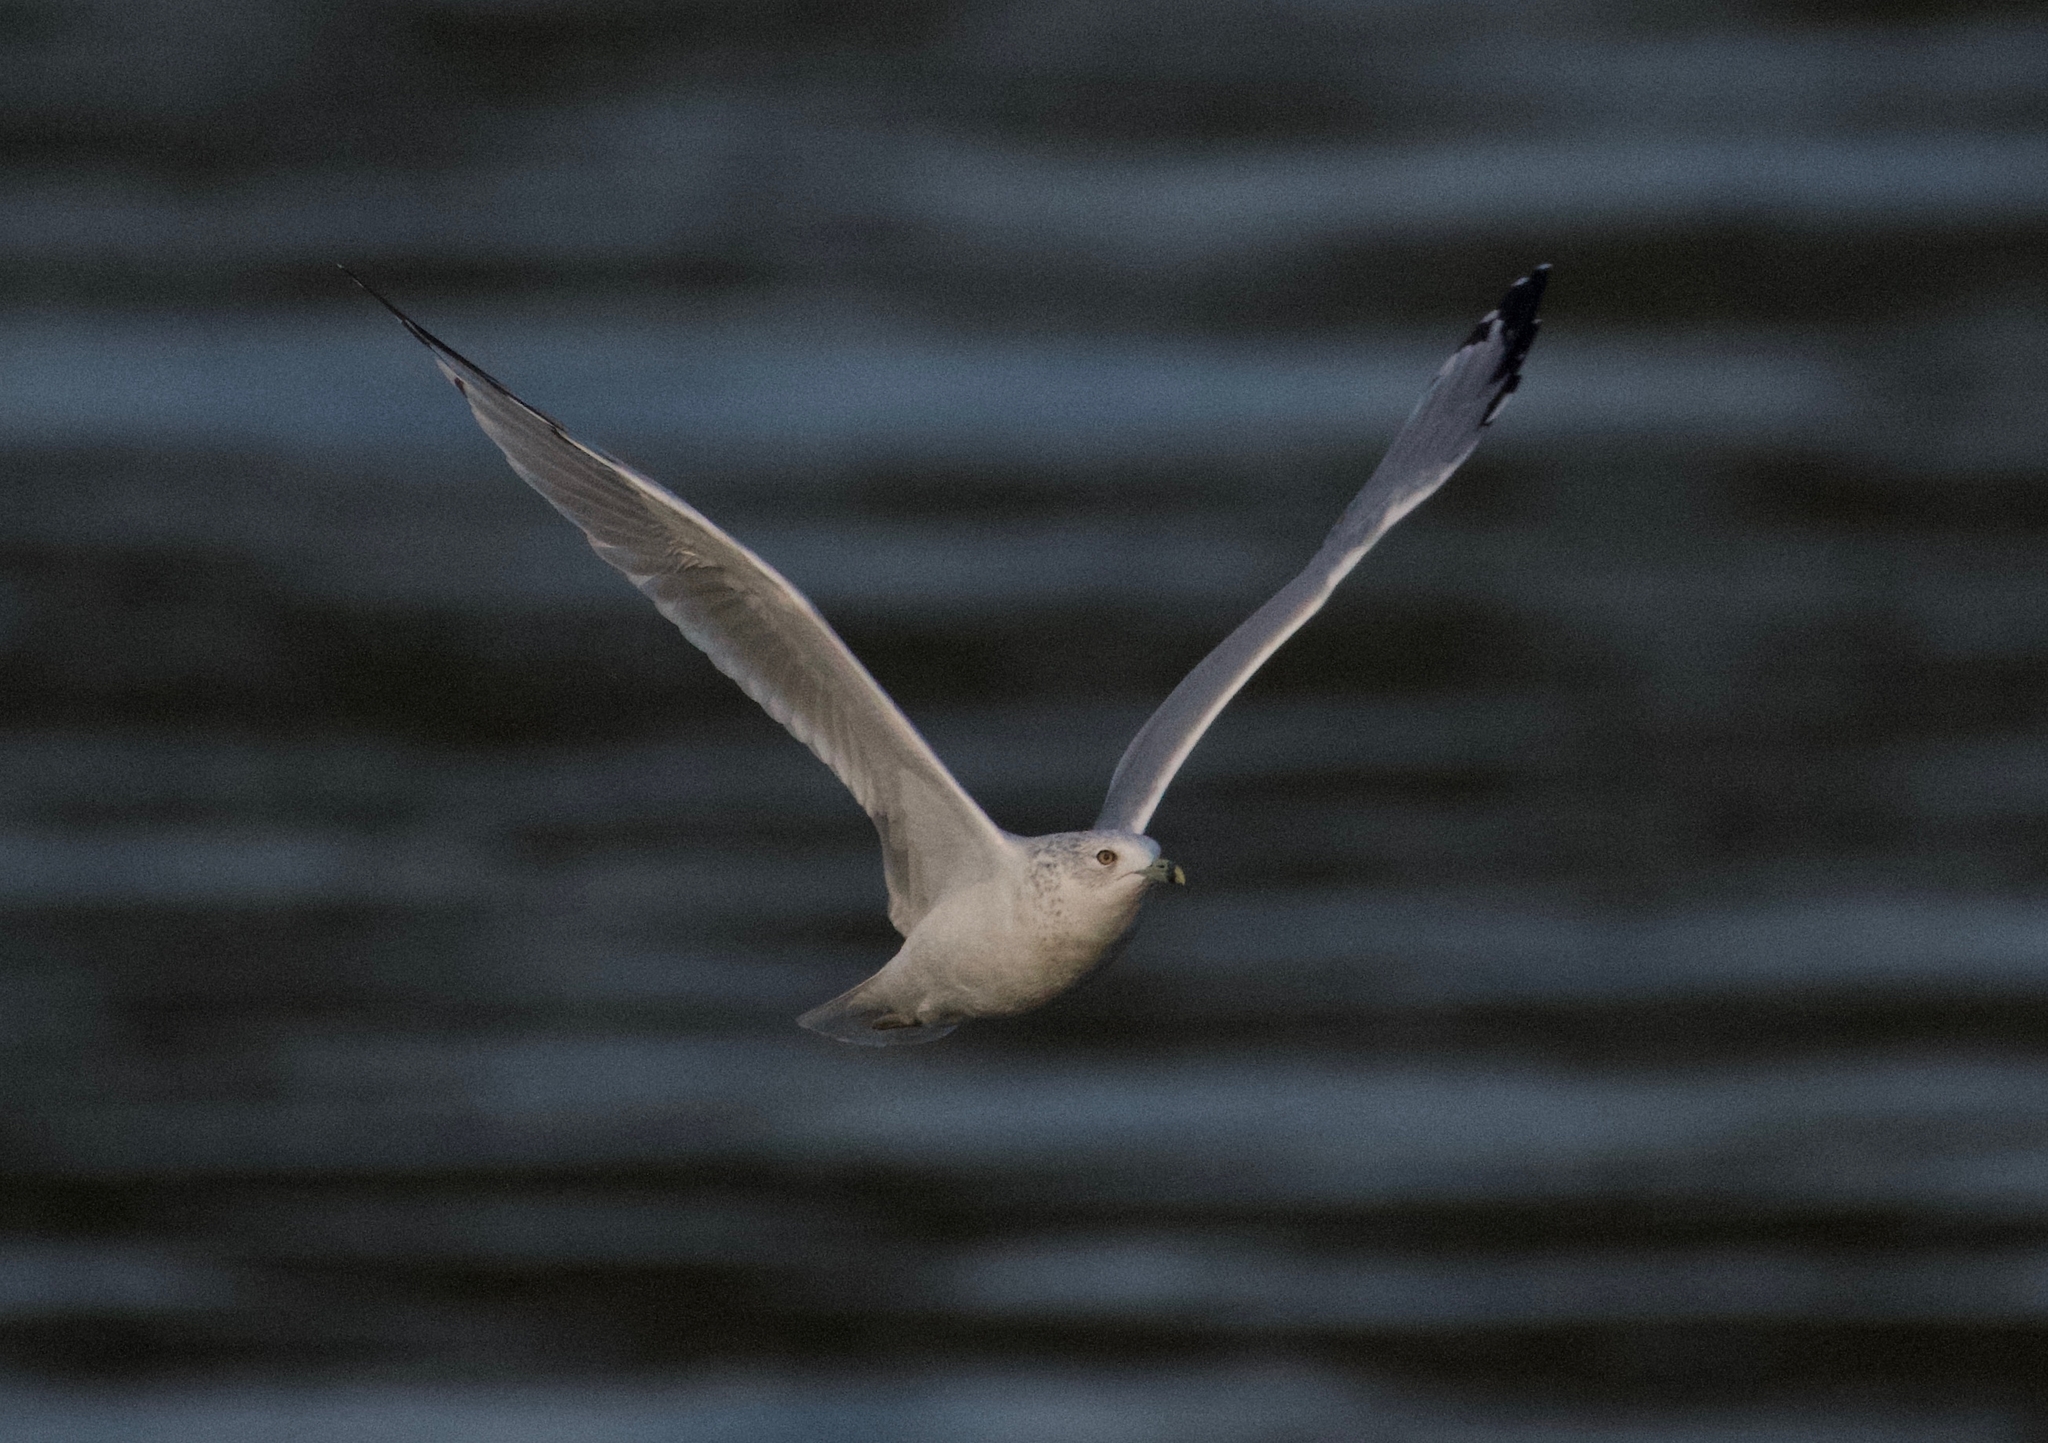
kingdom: Animalia
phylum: Chordata
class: Aves
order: Charadriiformes
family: Laridae
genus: Larus
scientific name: Larus delawarensis
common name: Ring-billed gull
